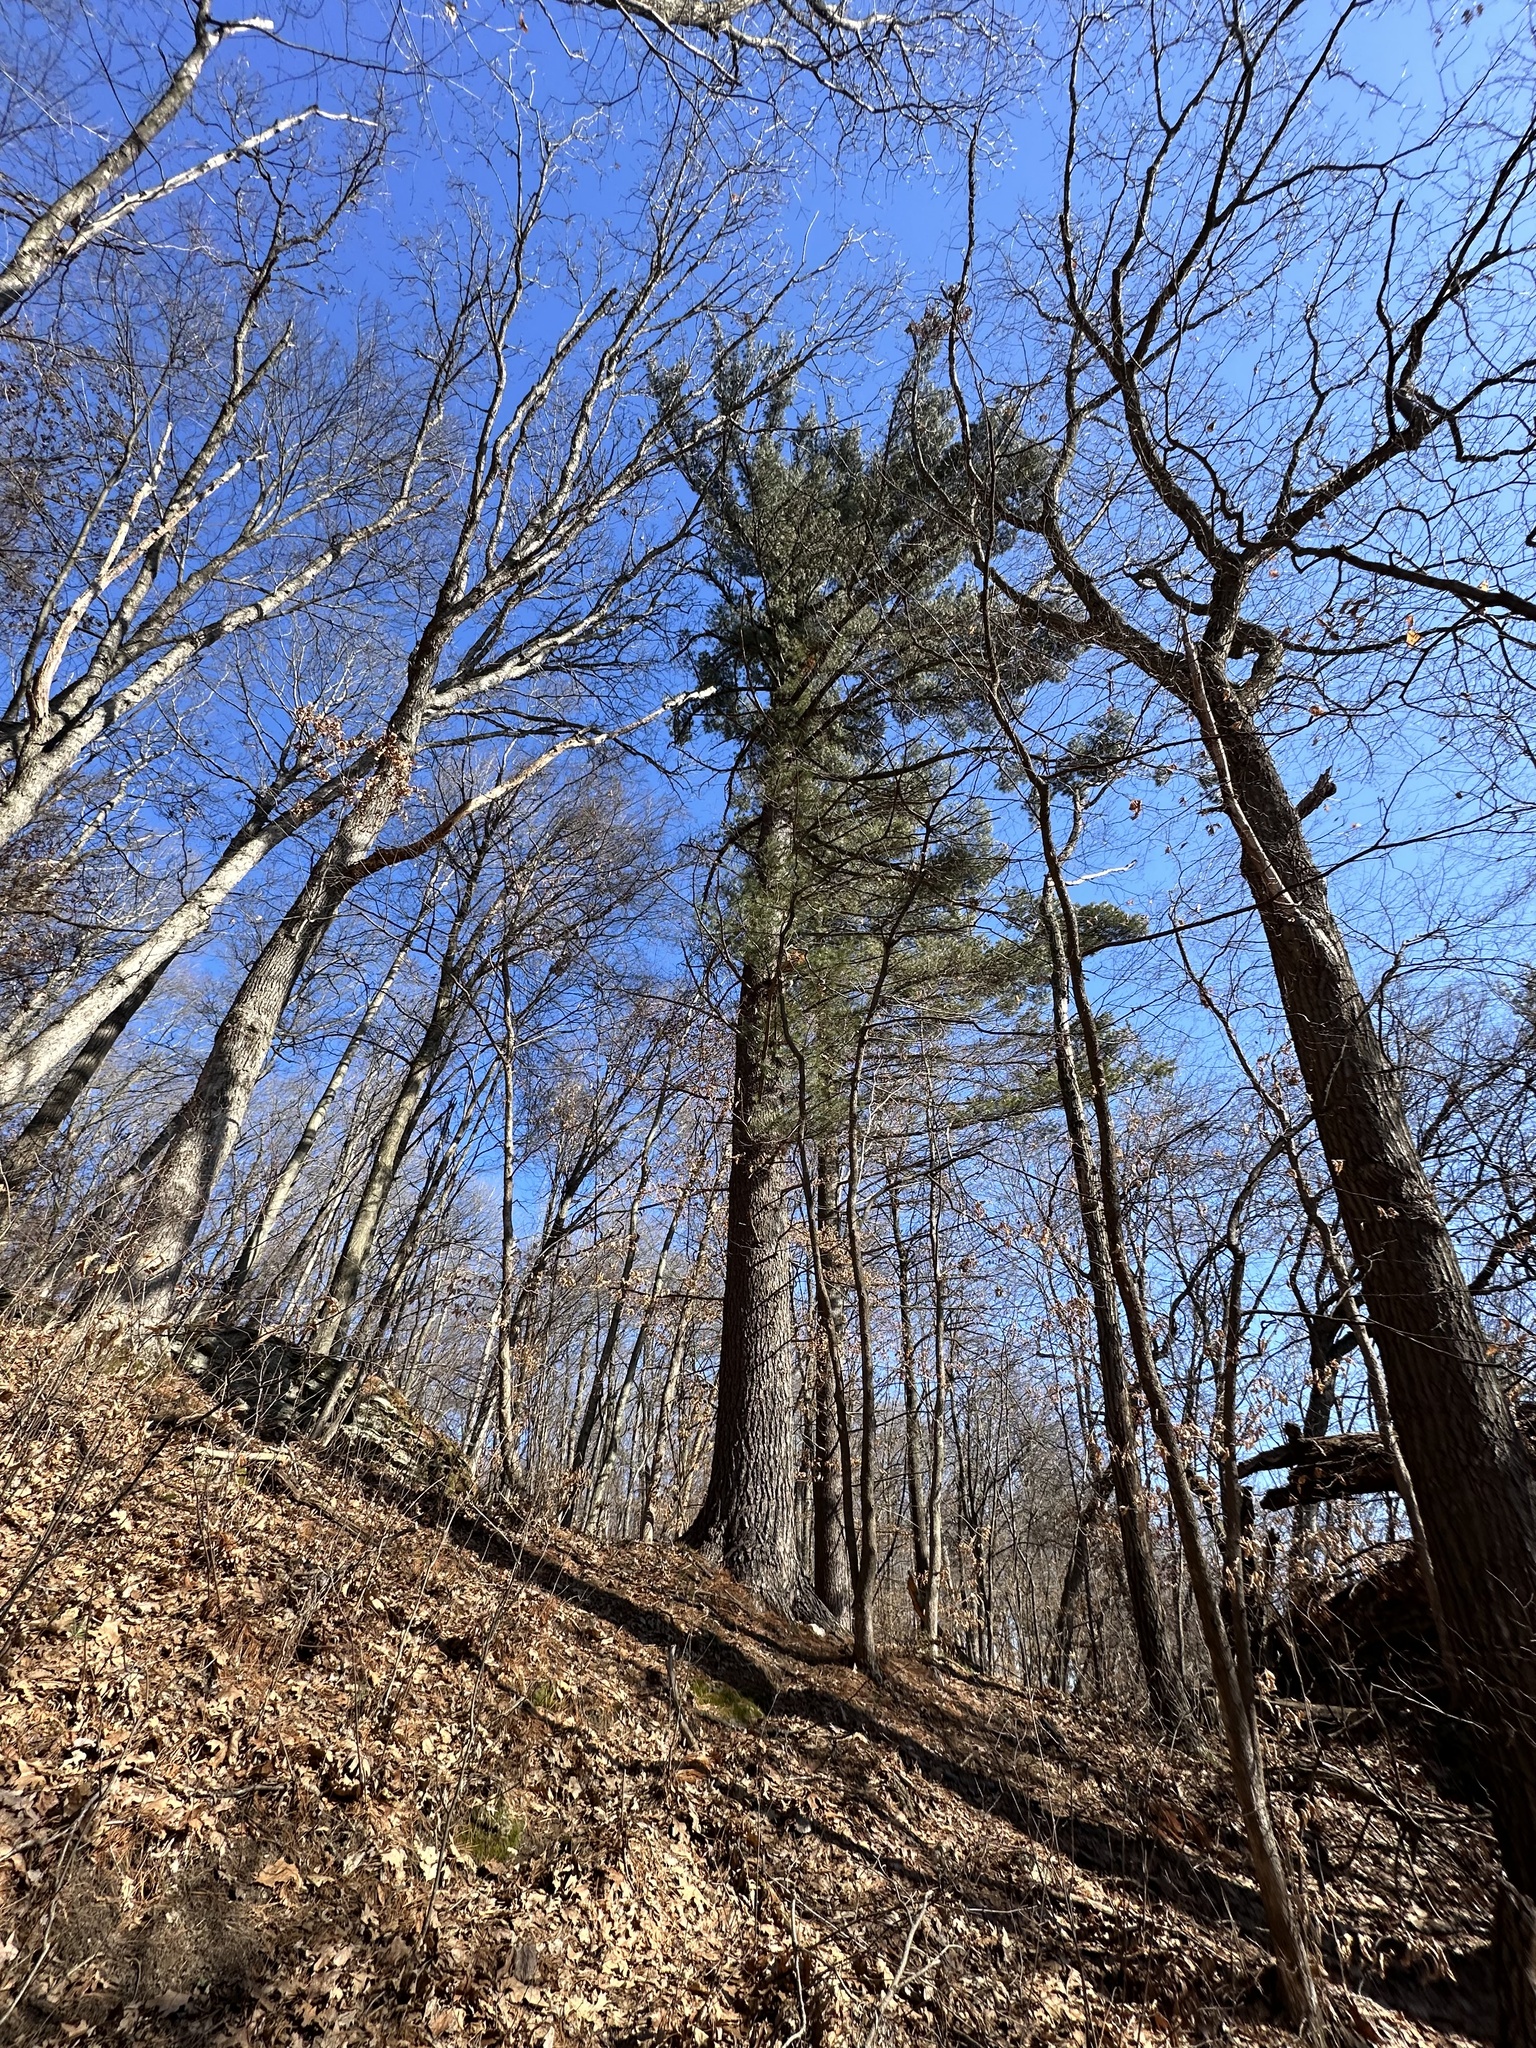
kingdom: Plantae
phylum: Tracheophyta
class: Pinopsida
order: Pinales
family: Pinaceae
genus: Pinus
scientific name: Pinus strobus
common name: Weymouth pine
